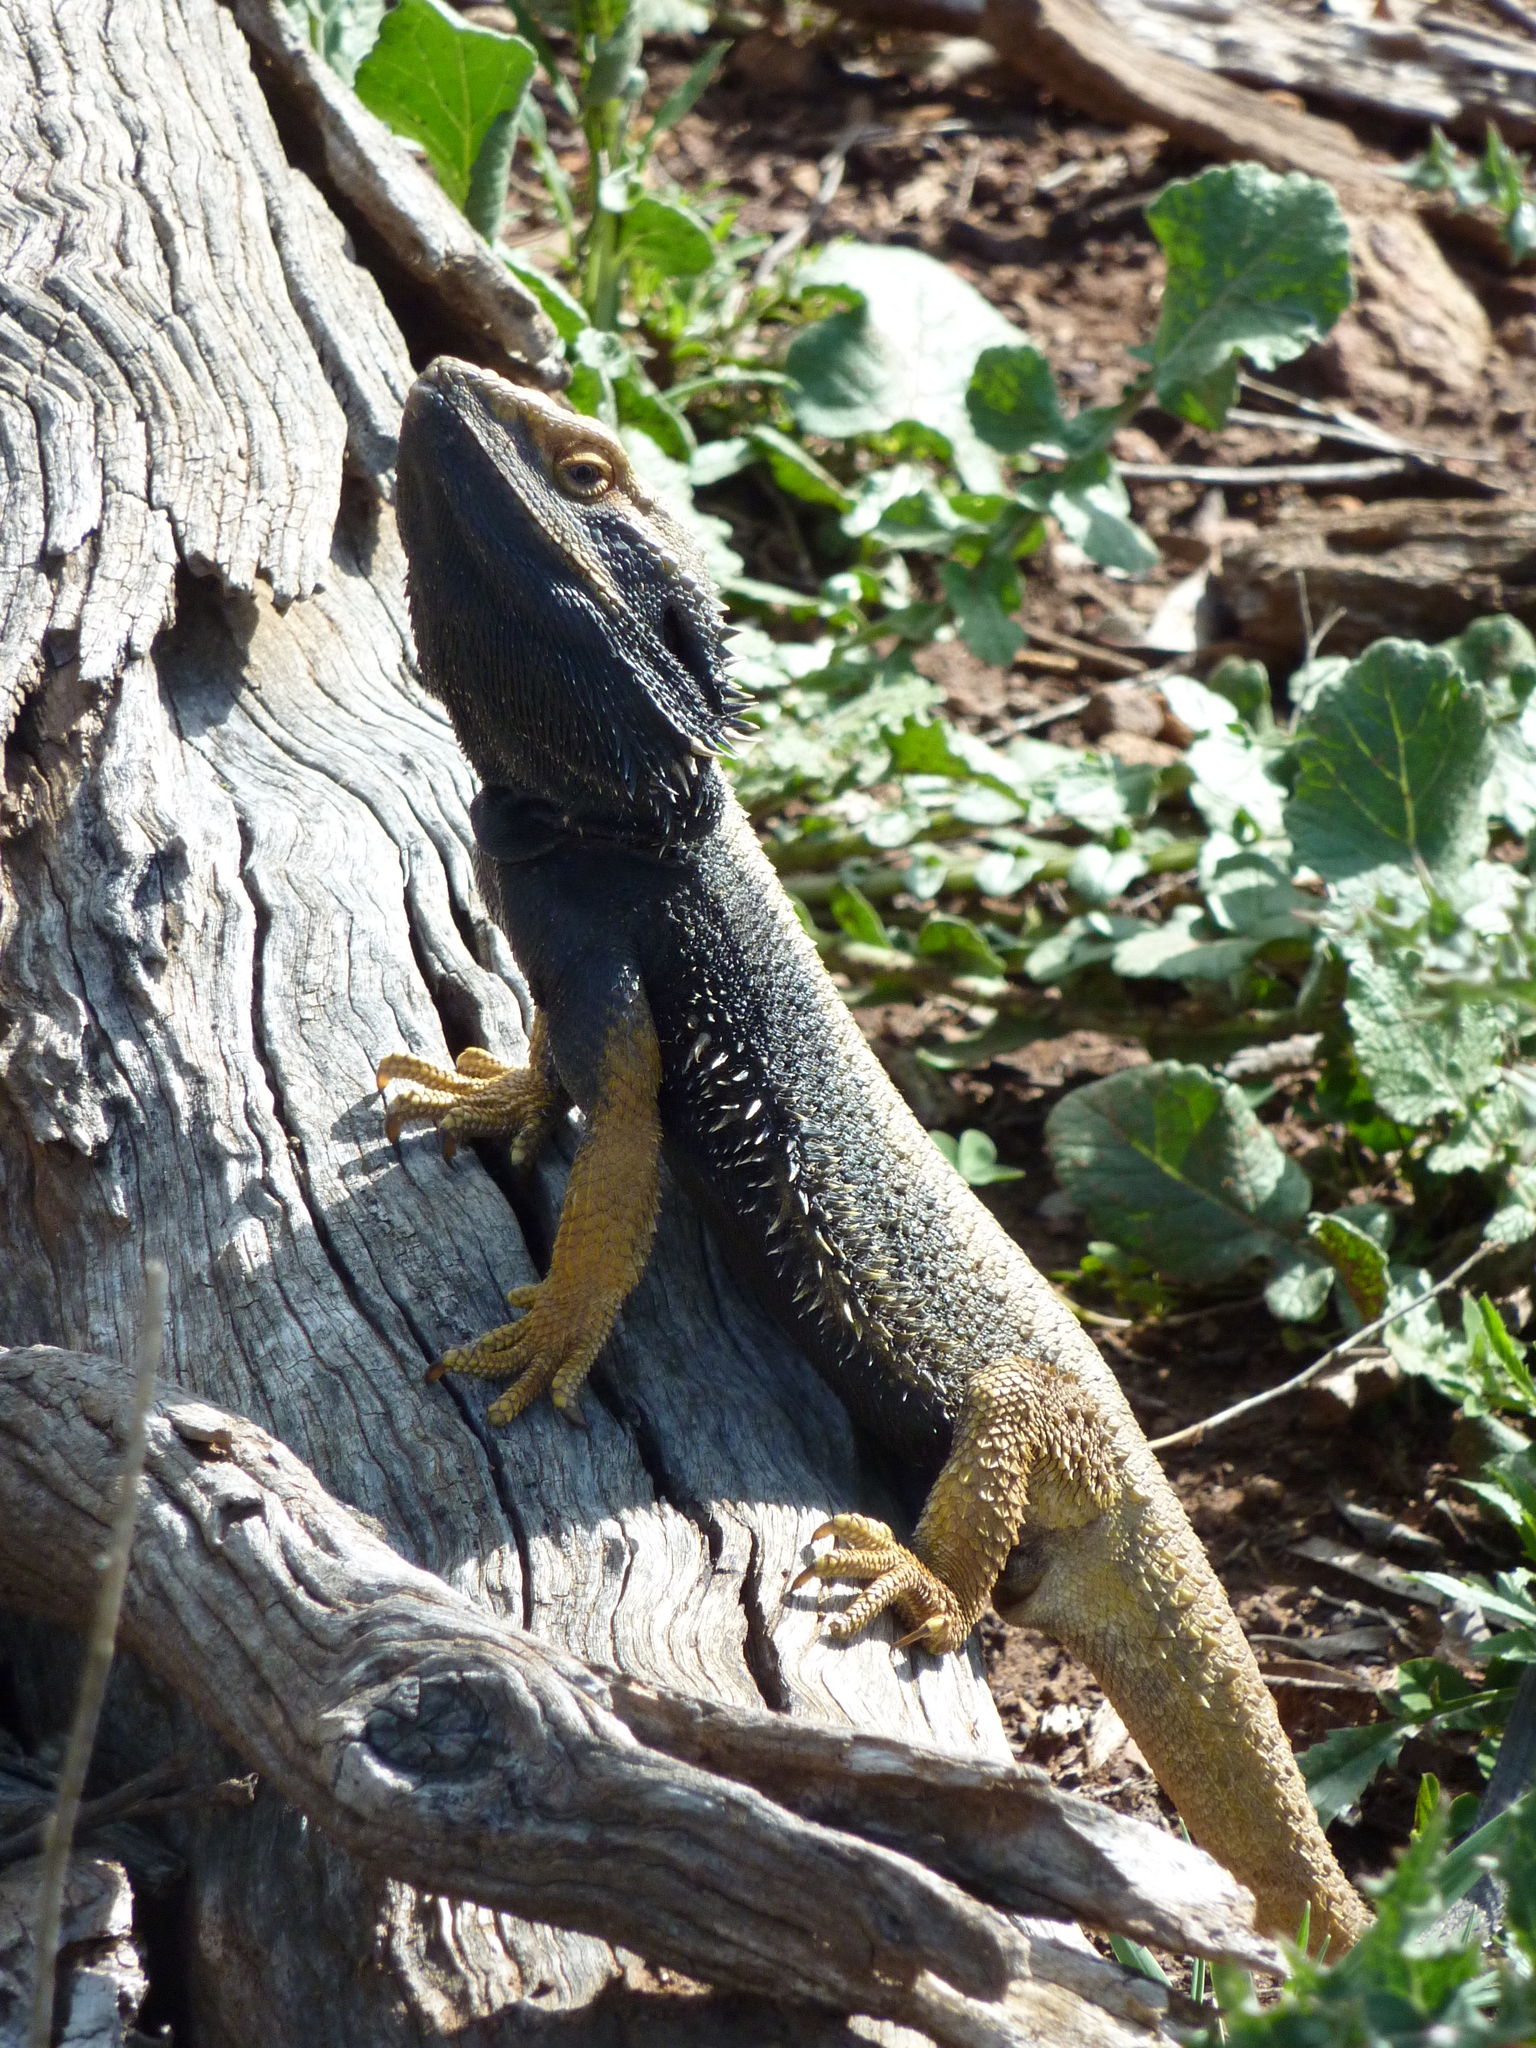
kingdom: Animalia
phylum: Chordata
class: Squamata
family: Agamidae
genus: Pogona
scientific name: Pogona barbata
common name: Bearded dragon
